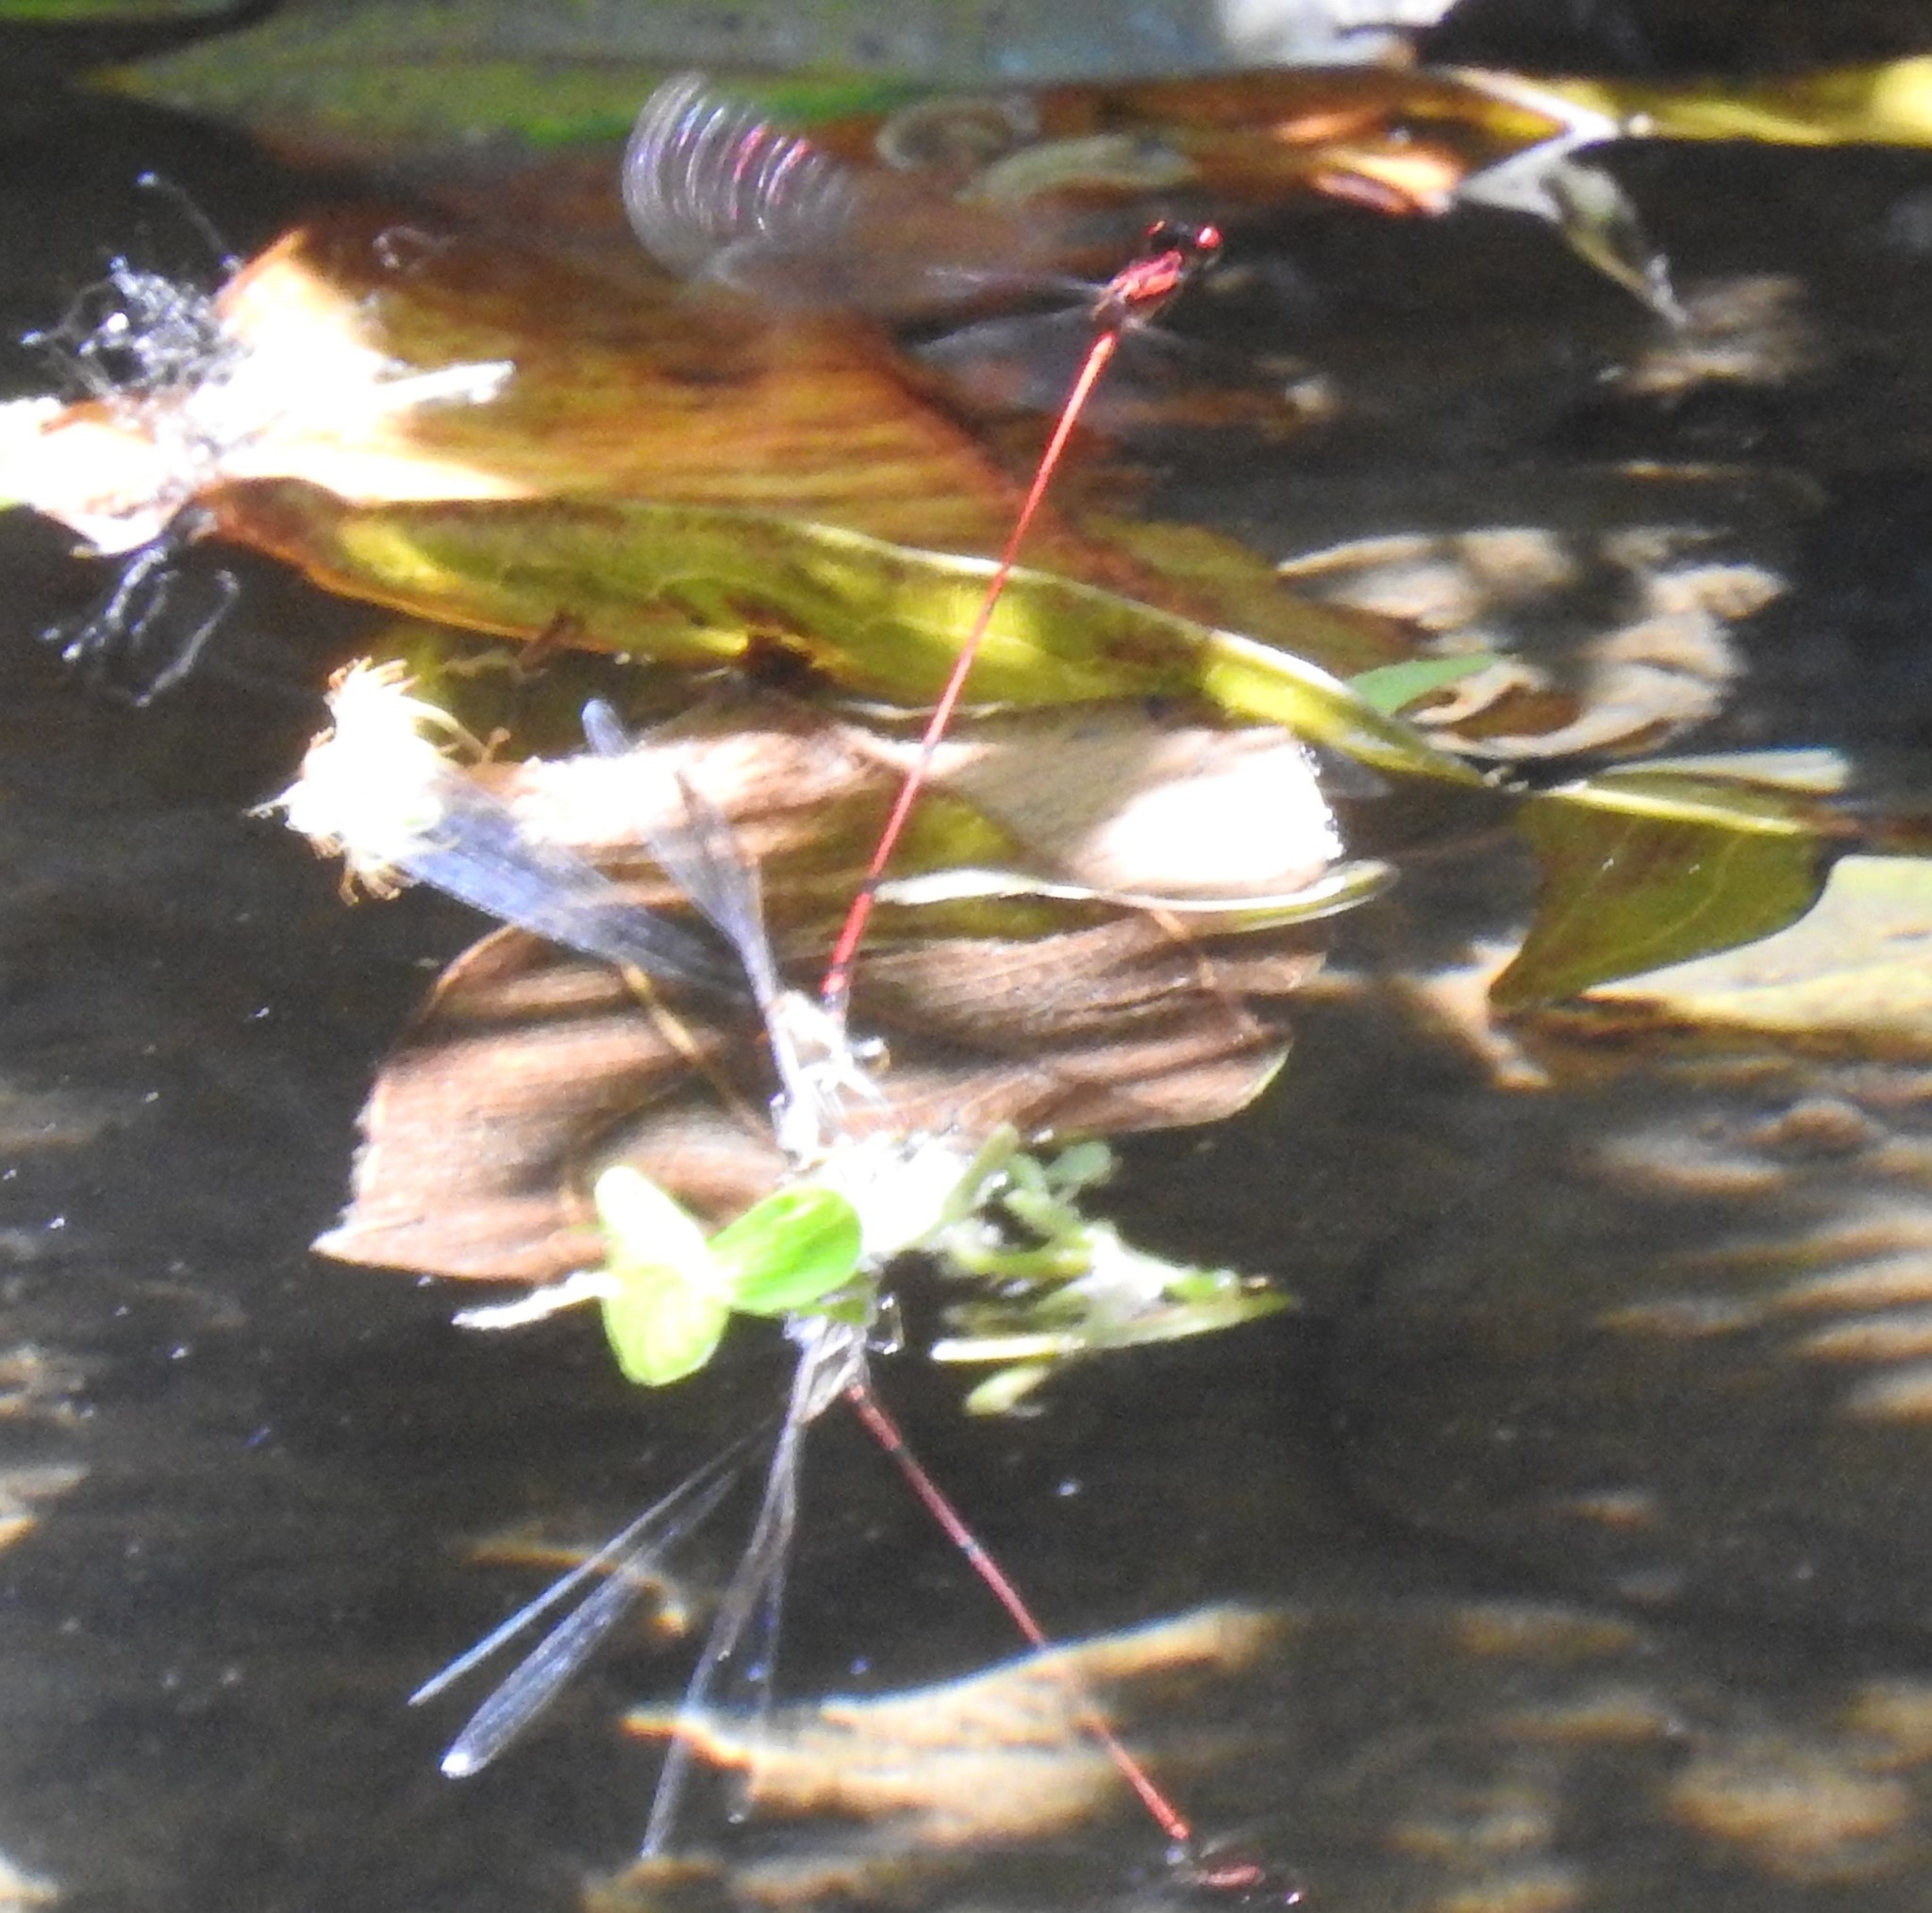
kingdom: Animalia
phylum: Arthropoda
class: Insecta
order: Odonata
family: Coenagrionidae
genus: Protoneura
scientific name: Protoneura amatoria
